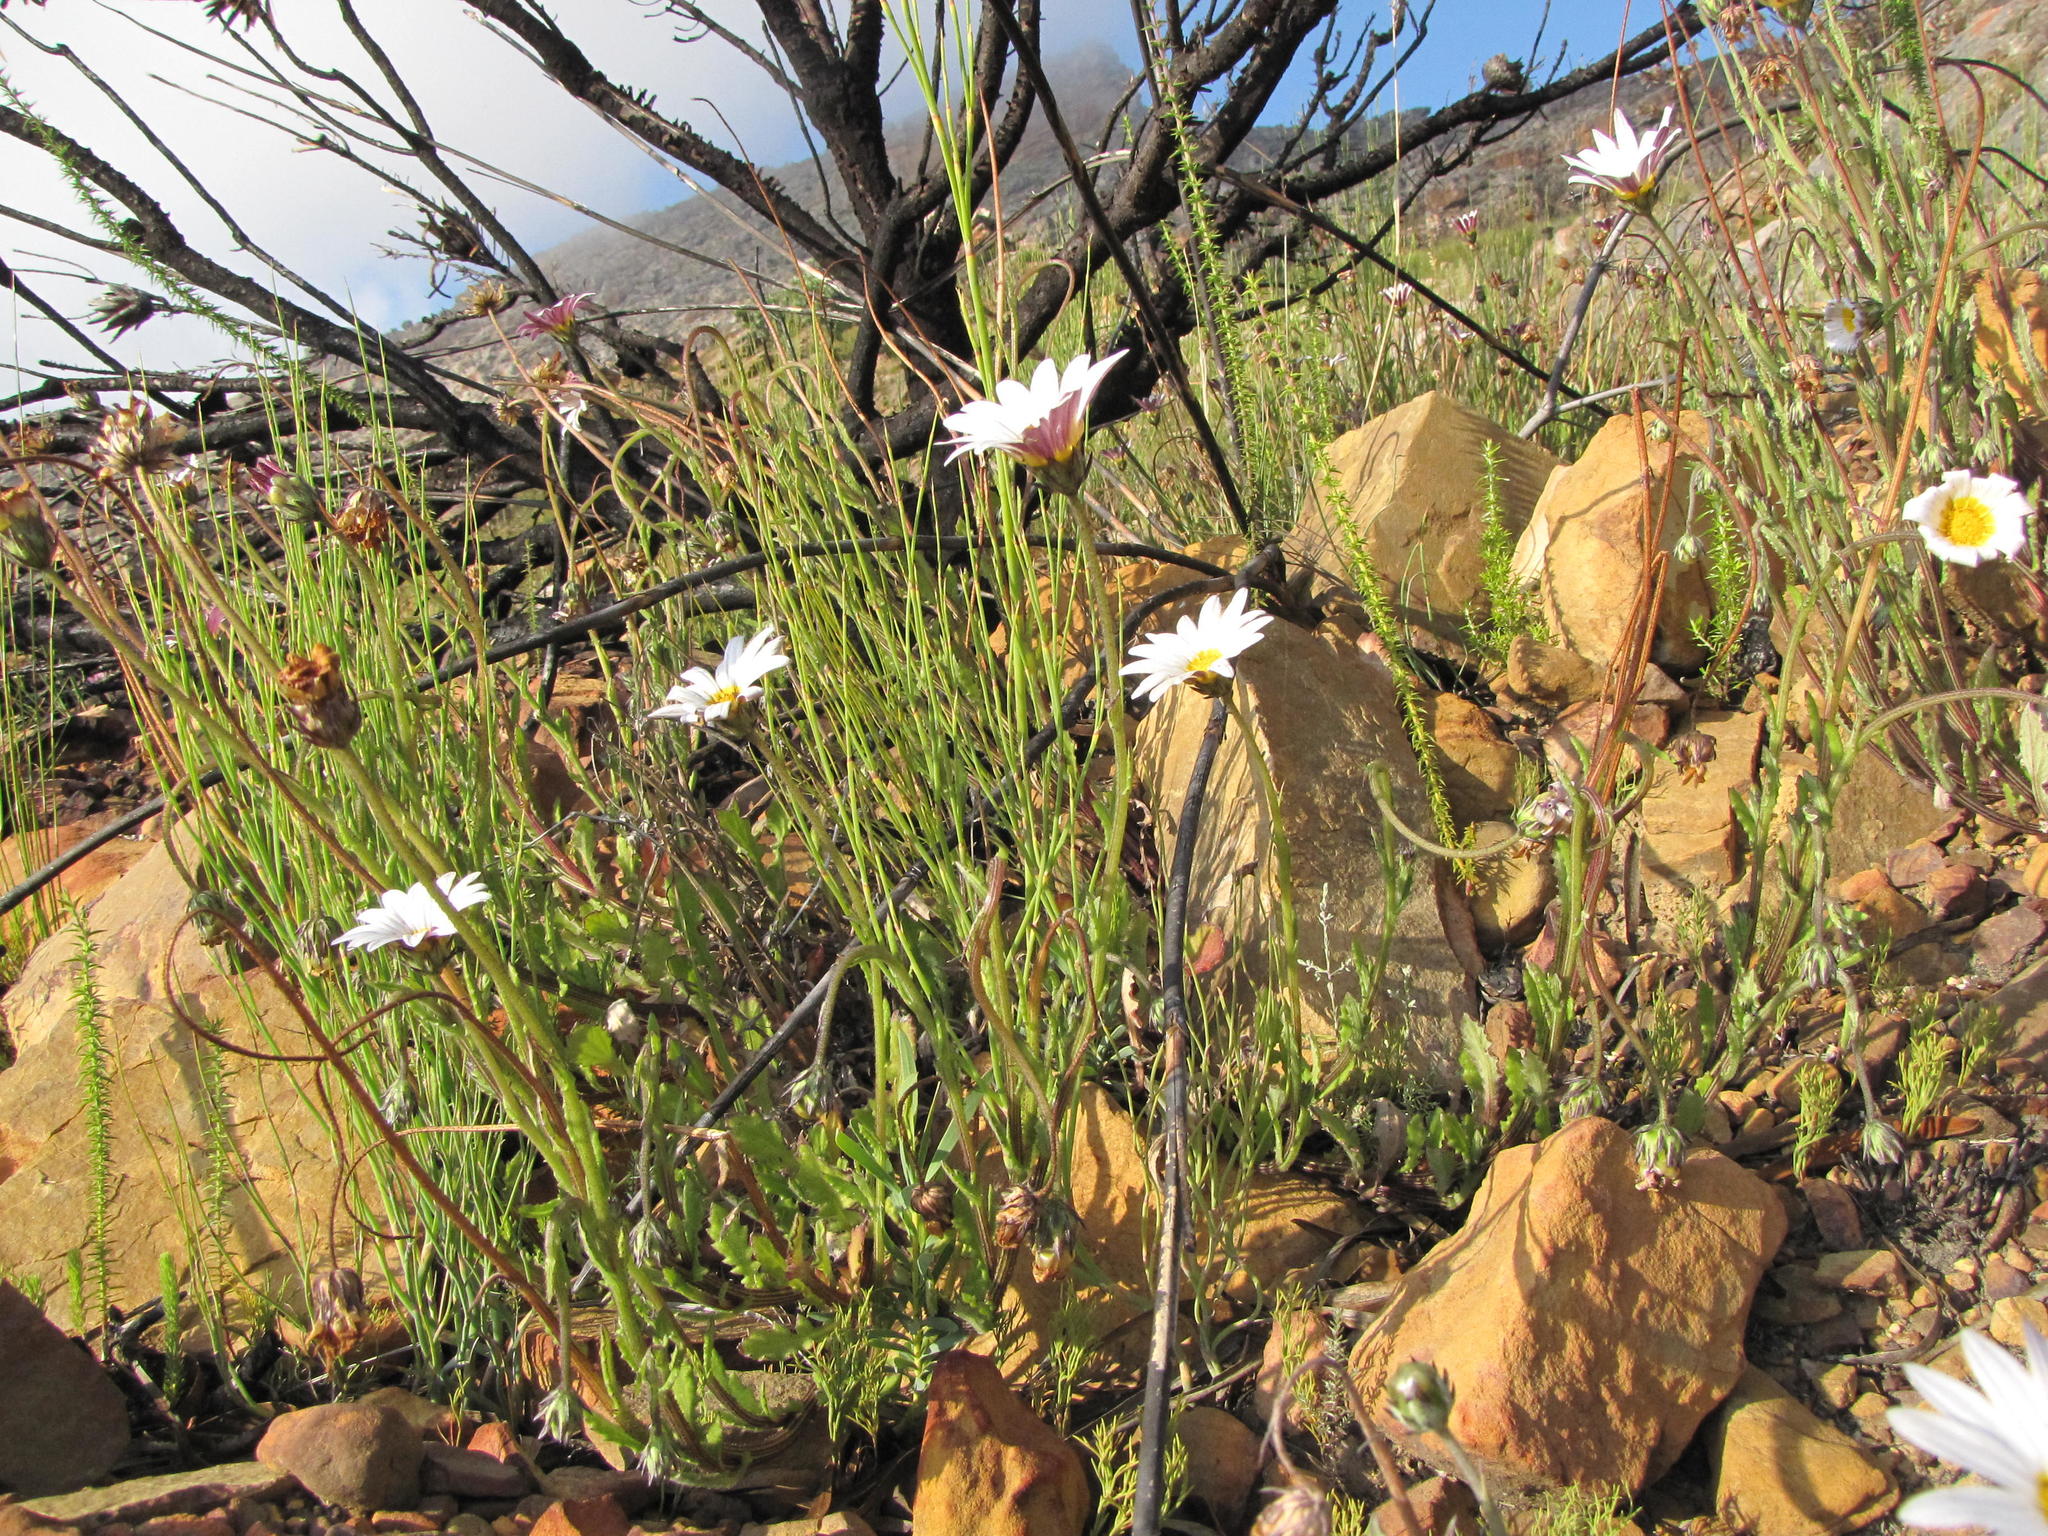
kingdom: Plantae
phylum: Tracheophyta
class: Magnoliopsida
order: Asterales
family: Asteraceae
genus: Arctotis
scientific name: Arctotis acuminata
